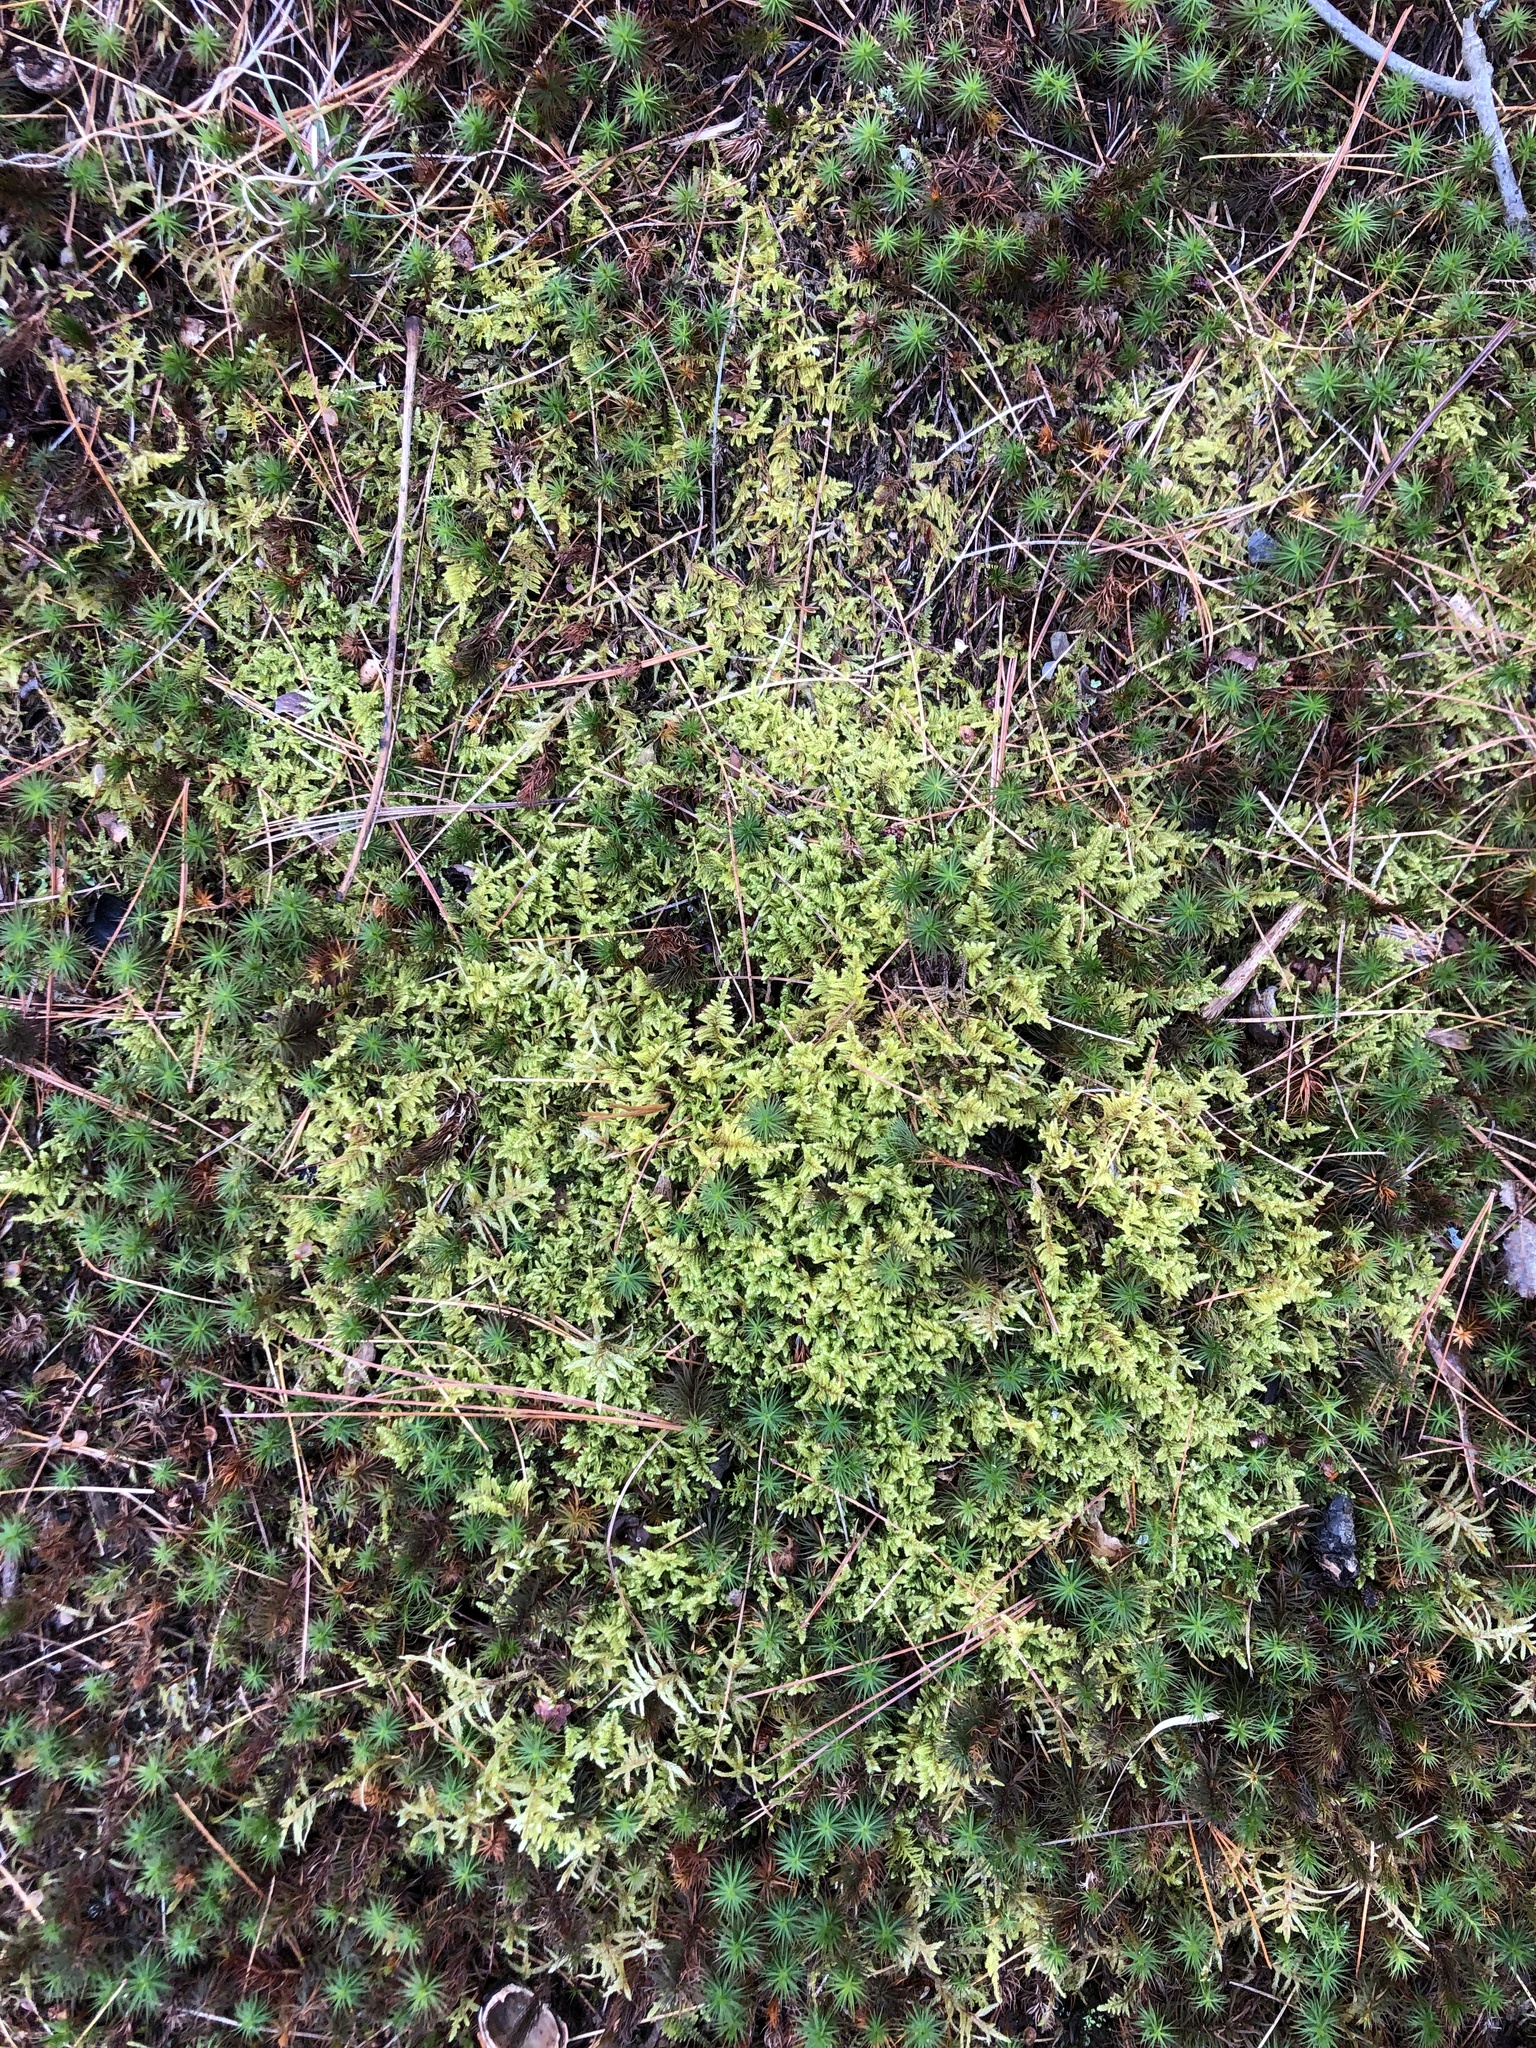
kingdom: Plantae
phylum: Bryophyta
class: Bryopsida
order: Hypnales
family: Callicladiaceae
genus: Callicladium
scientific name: Callicladium imponens
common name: Brocade moss
